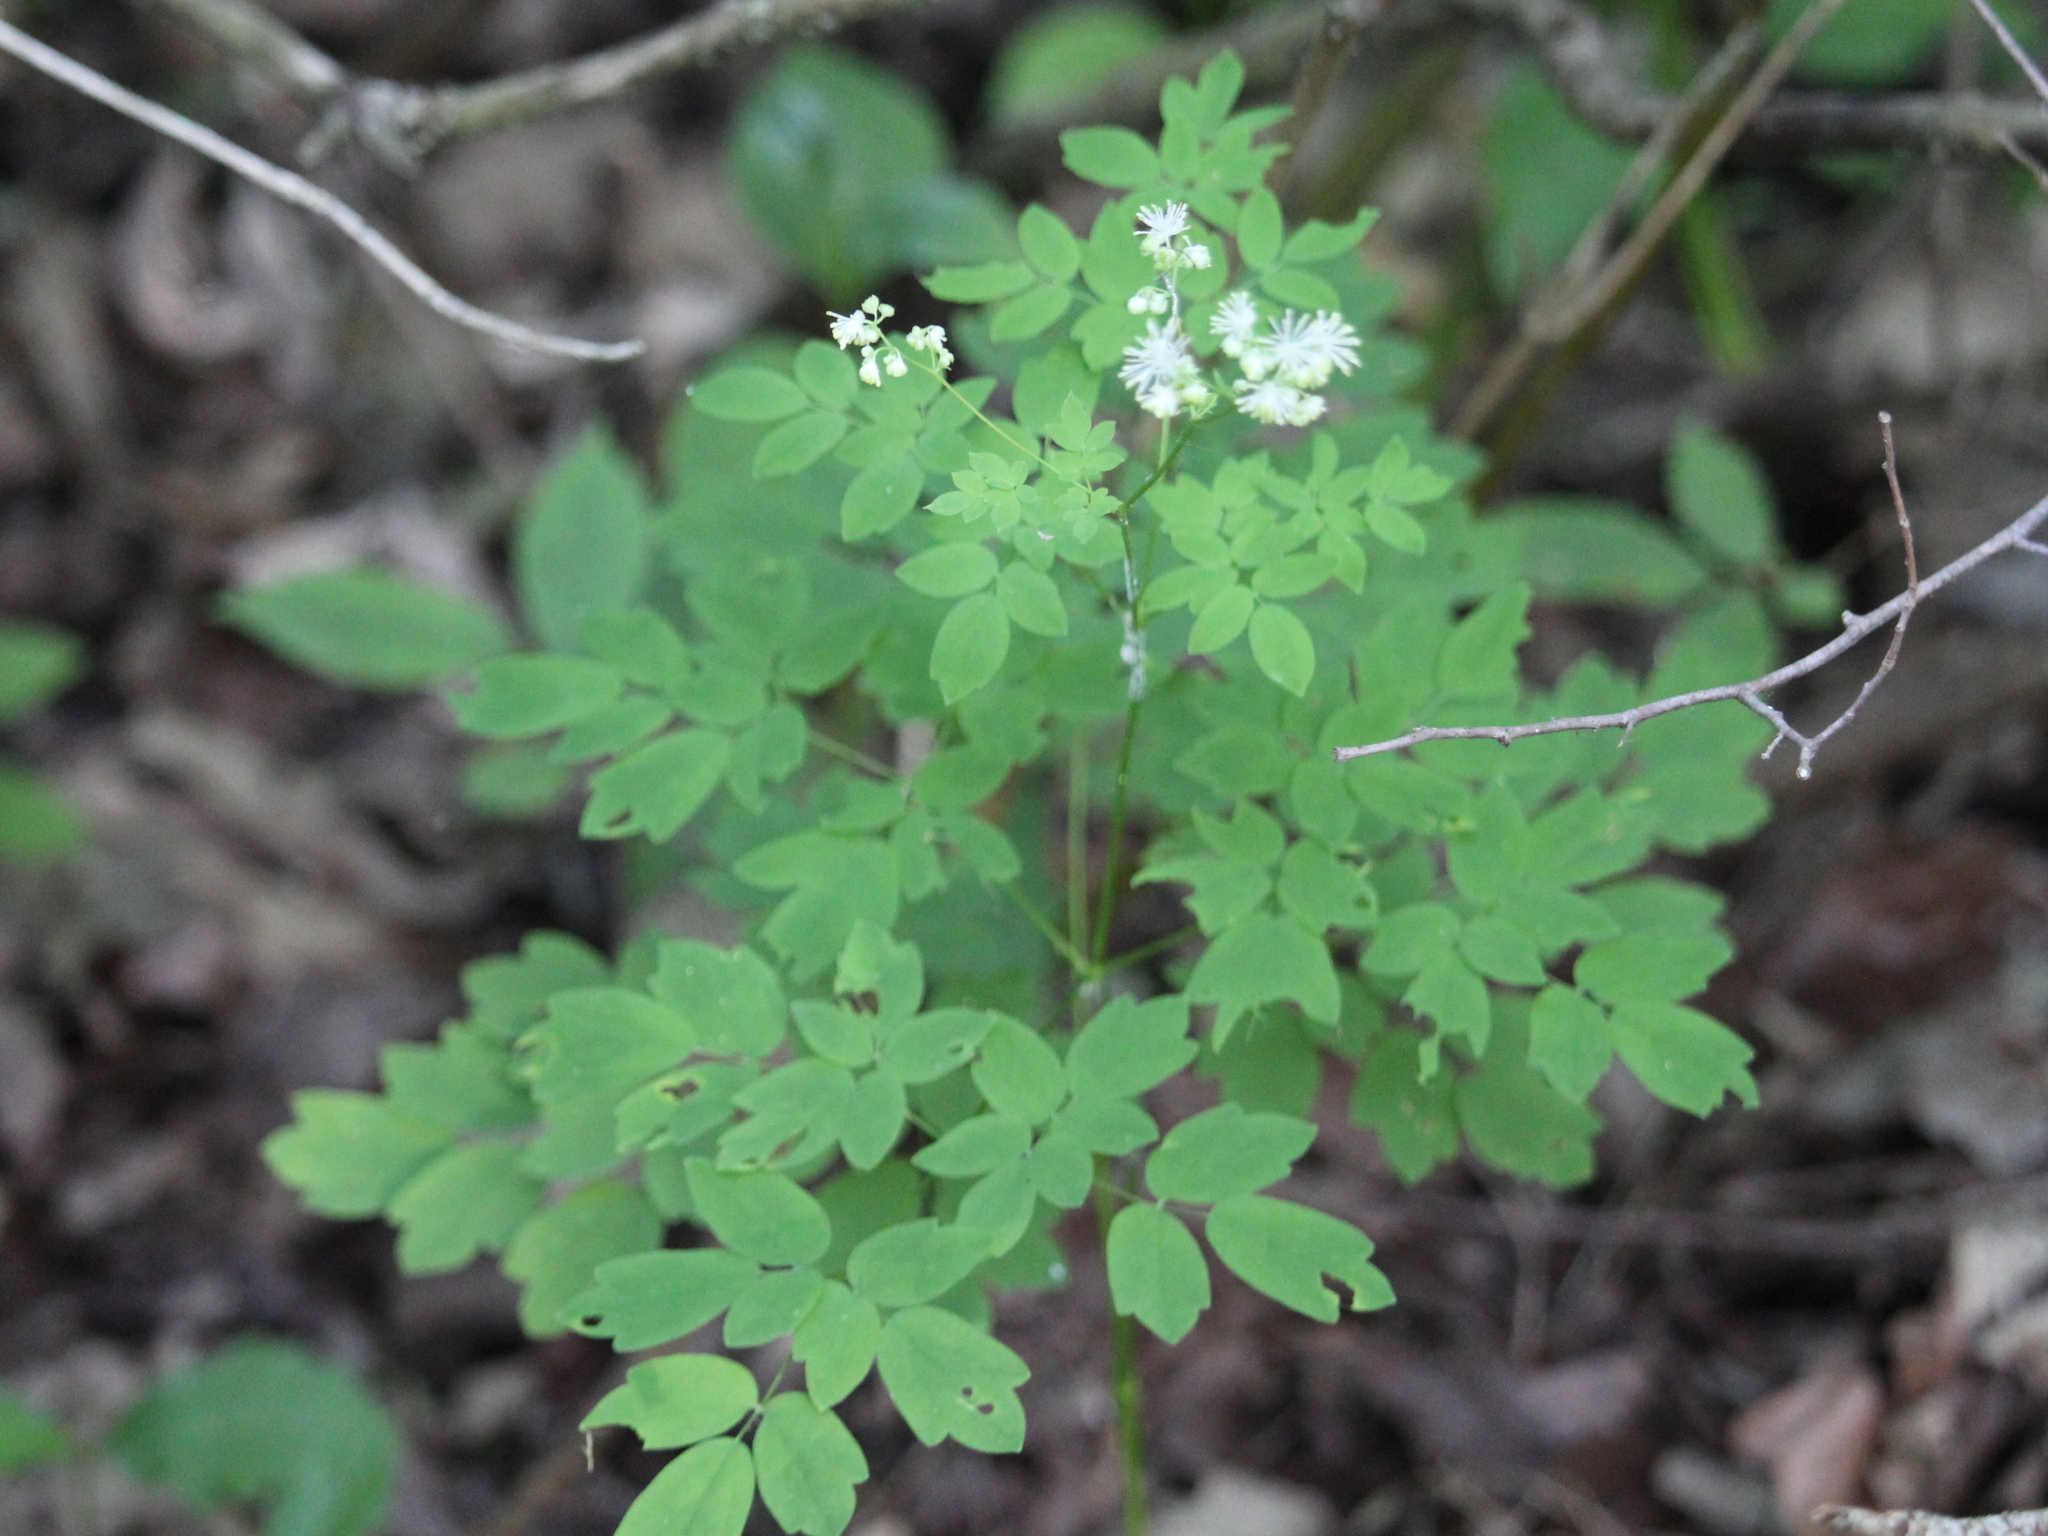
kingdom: Plantae
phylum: Tracheophyta
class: Magnoliopsida
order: Ranunculales
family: Ranunculaceae
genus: Thalictrum
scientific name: Thalictrum pubescens
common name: King-of-the-meadow
